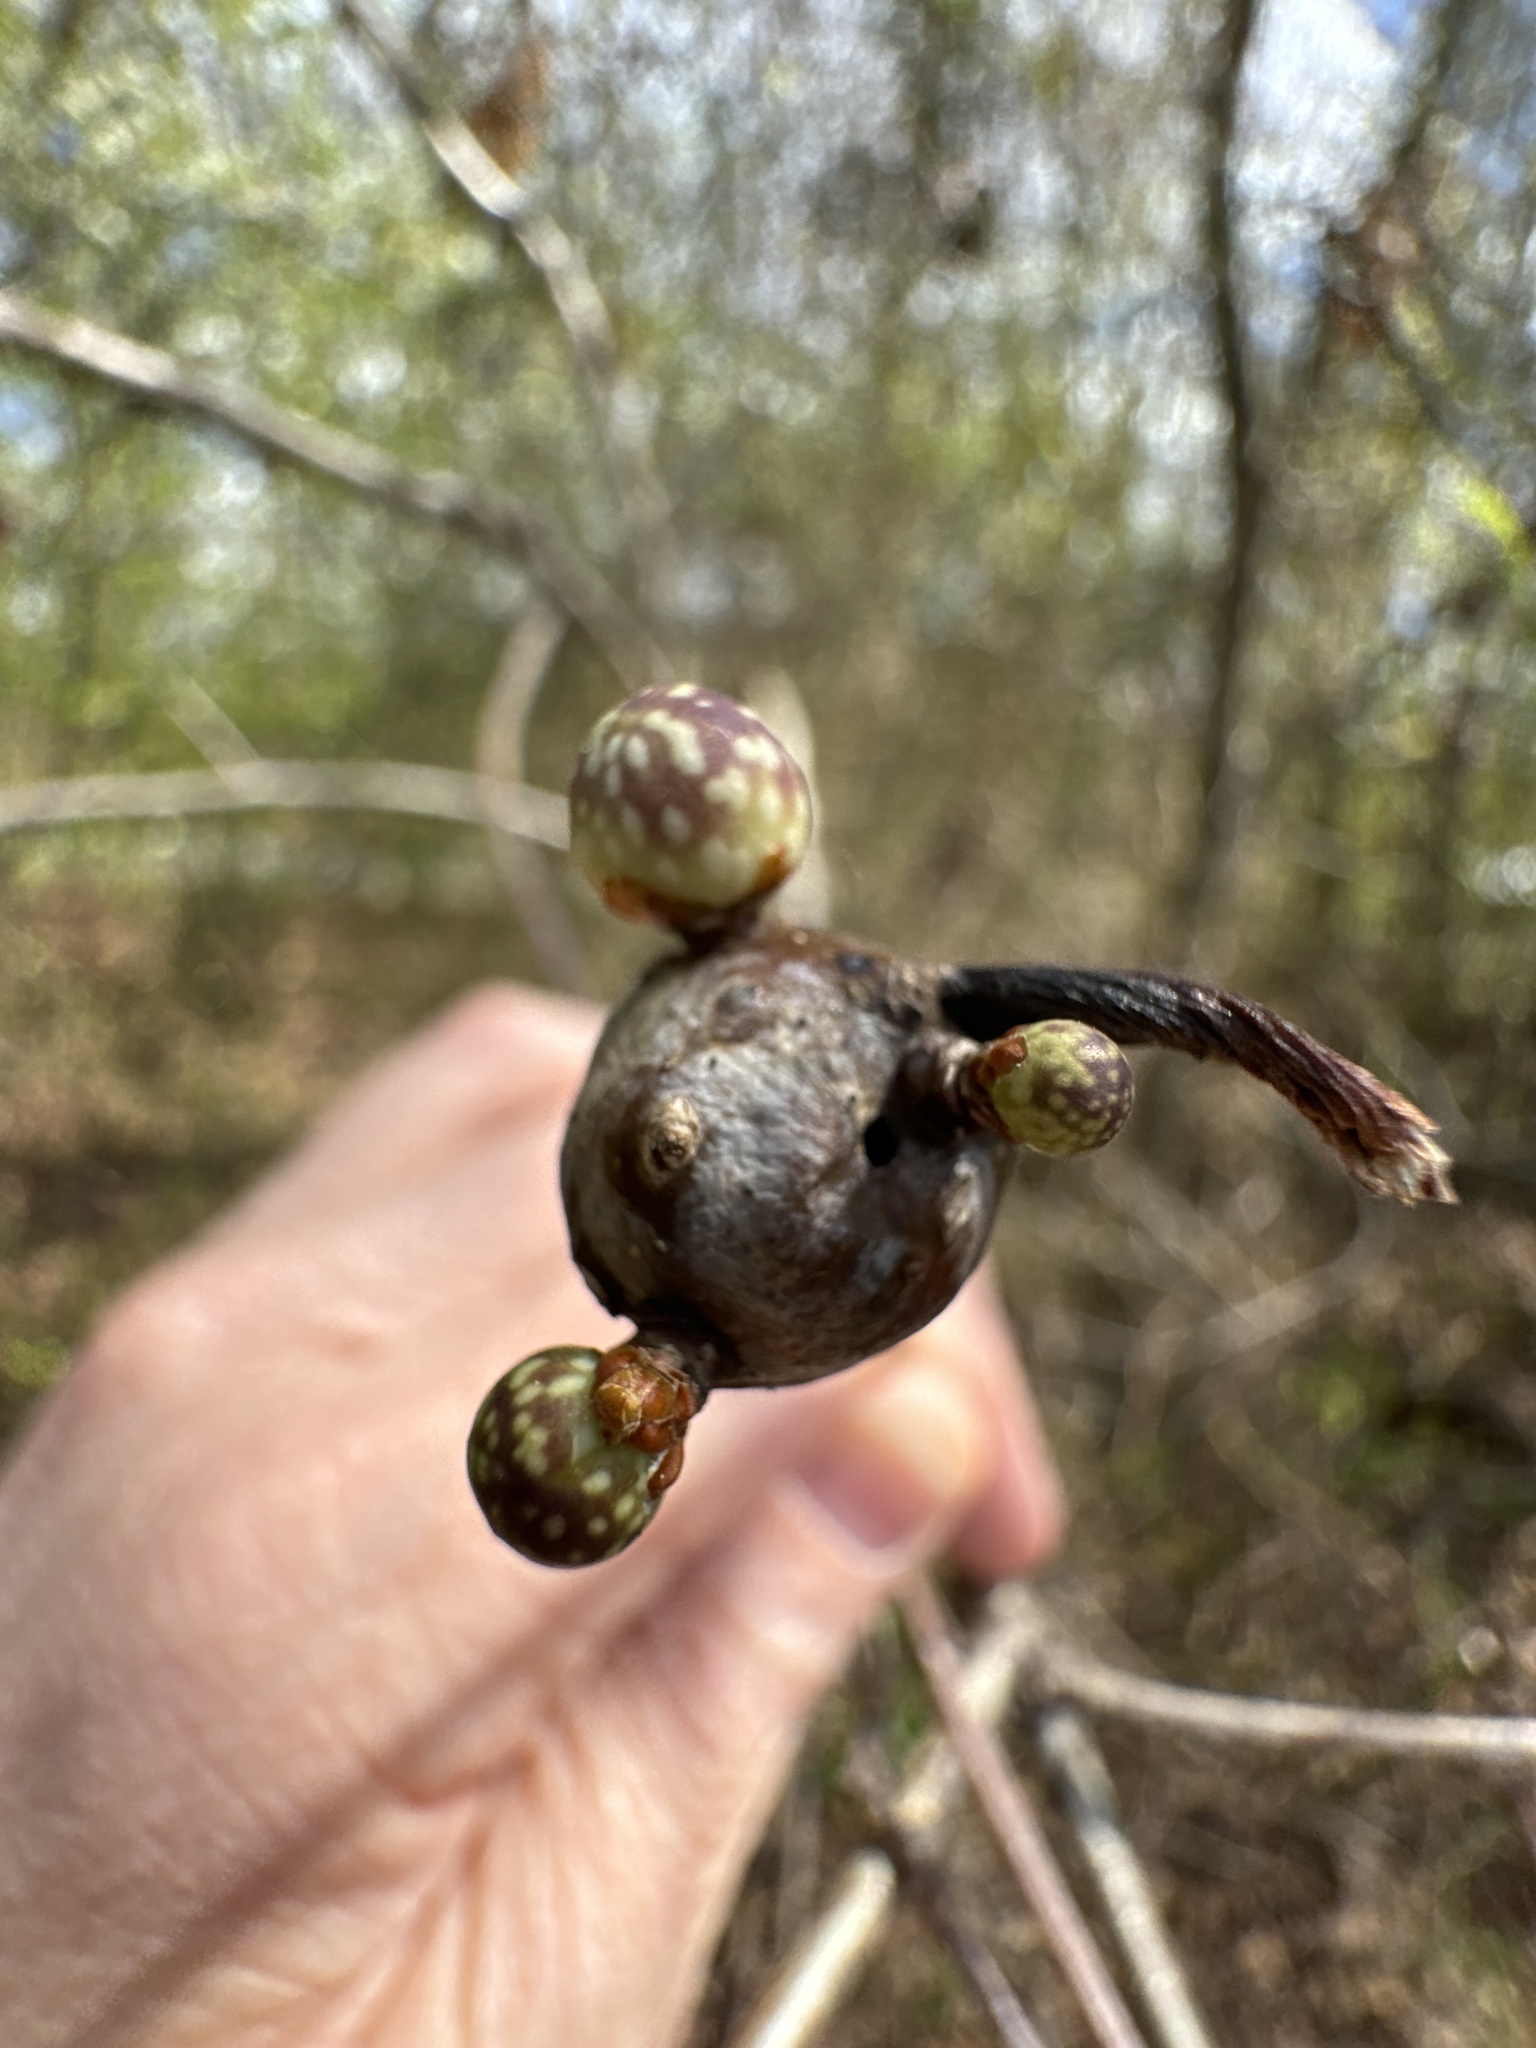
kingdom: Animalia
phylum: Arthropoda
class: Insecta
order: Hymenoptera
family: Cynipidae
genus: Andricus
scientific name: Andricus
